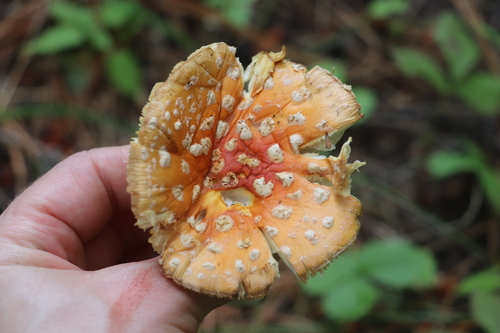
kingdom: Fungi
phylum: Basidiomycota
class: Agaricomycetes
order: Agaricales
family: Amanitaceae
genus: Amanita
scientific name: Amanita muscaria
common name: Fly agaric
